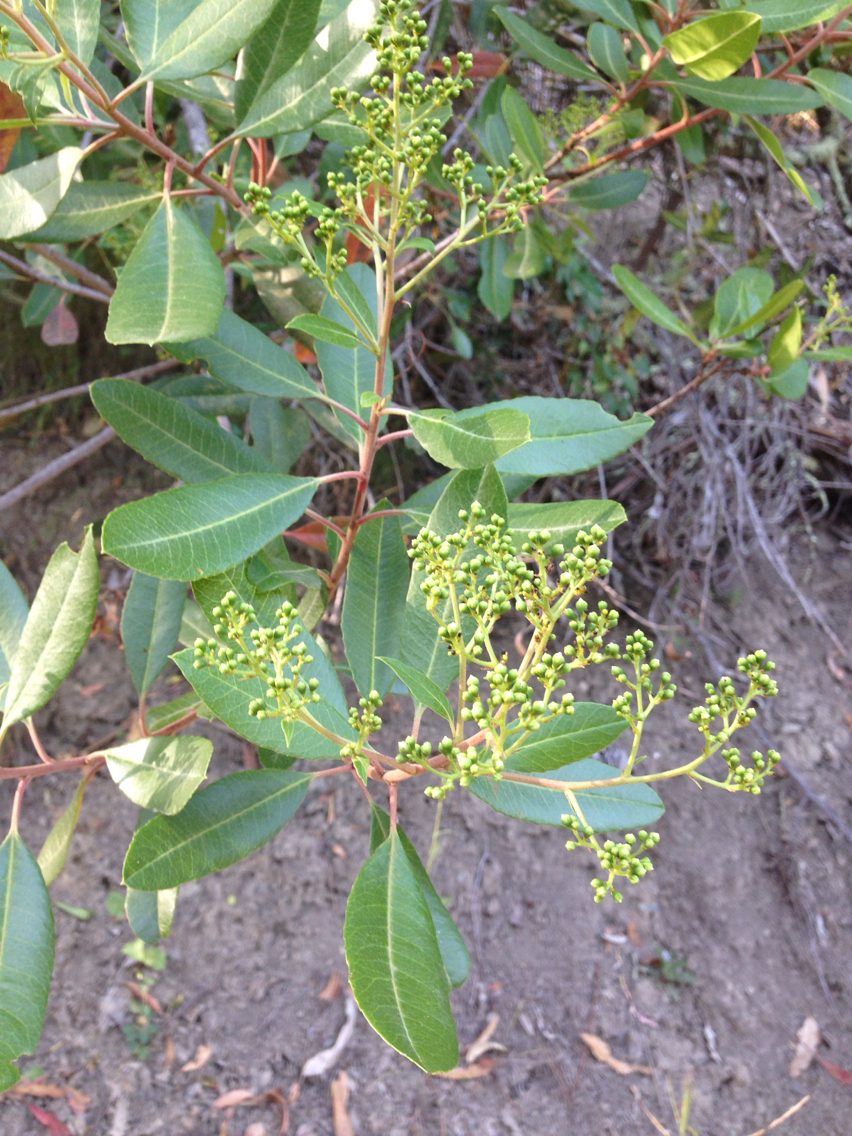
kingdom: Plantae
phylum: Tracheophyta
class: Magnoliopsida
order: Rosales
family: Rosaceae
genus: Heteromeles
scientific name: Heteromeles arbutifolia
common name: California-holly
